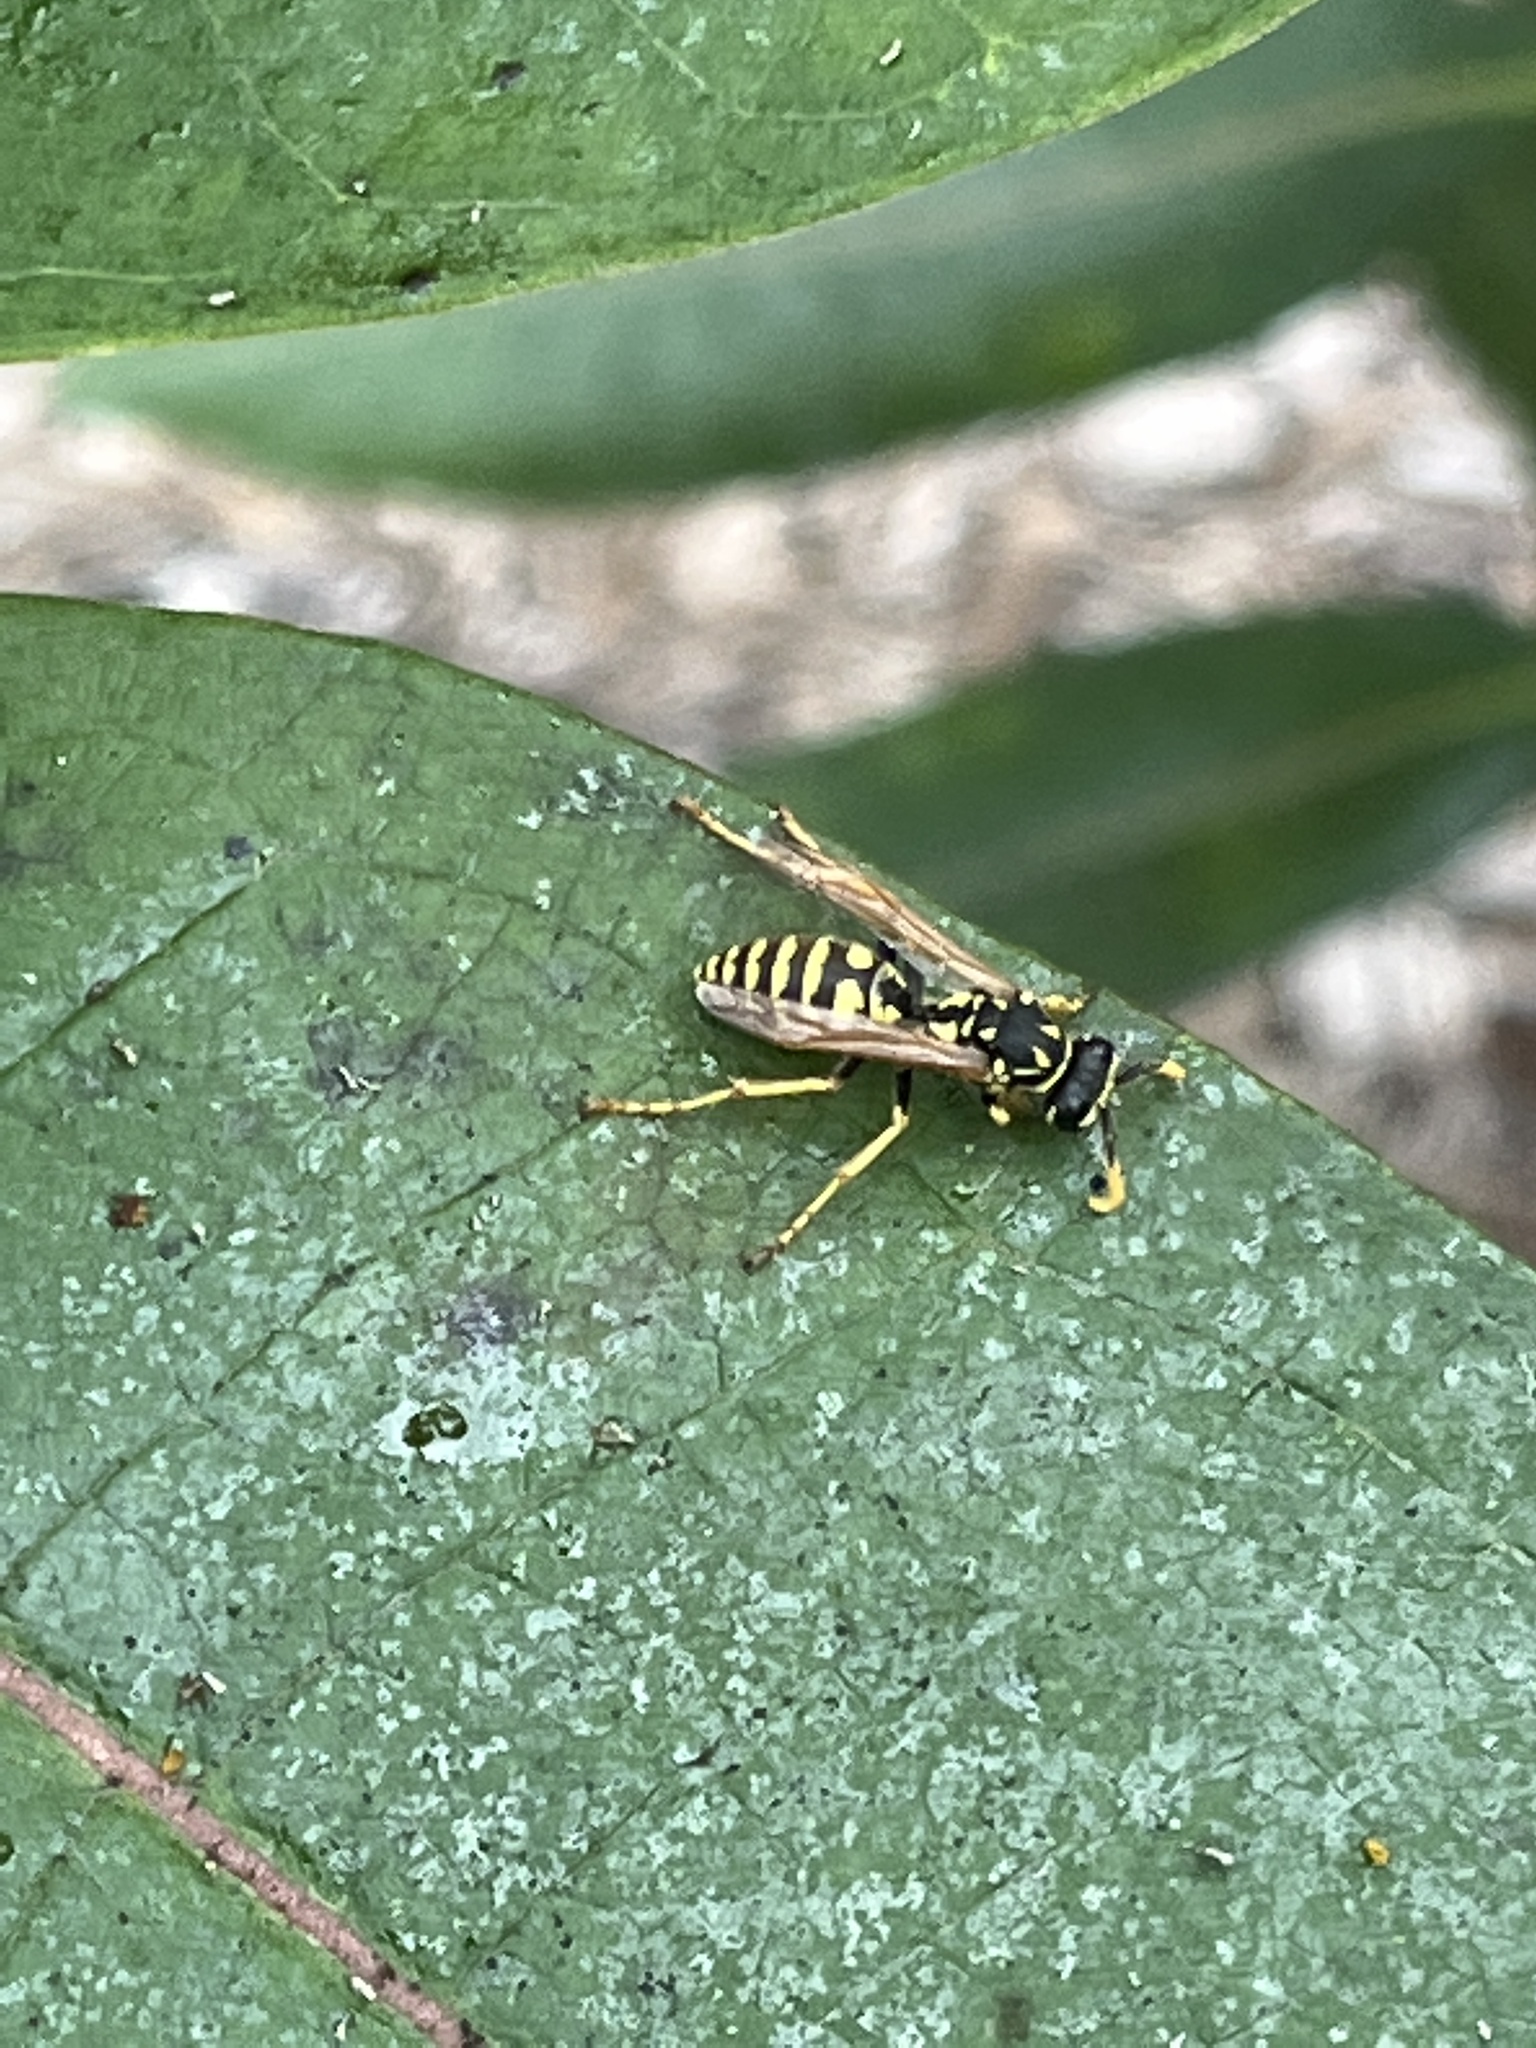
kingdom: Animalia
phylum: Arthropoda
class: Insecta
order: Hymenoptera
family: Eumenidae
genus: Polistes
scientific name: Polistes dominula
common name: Paper wasp
